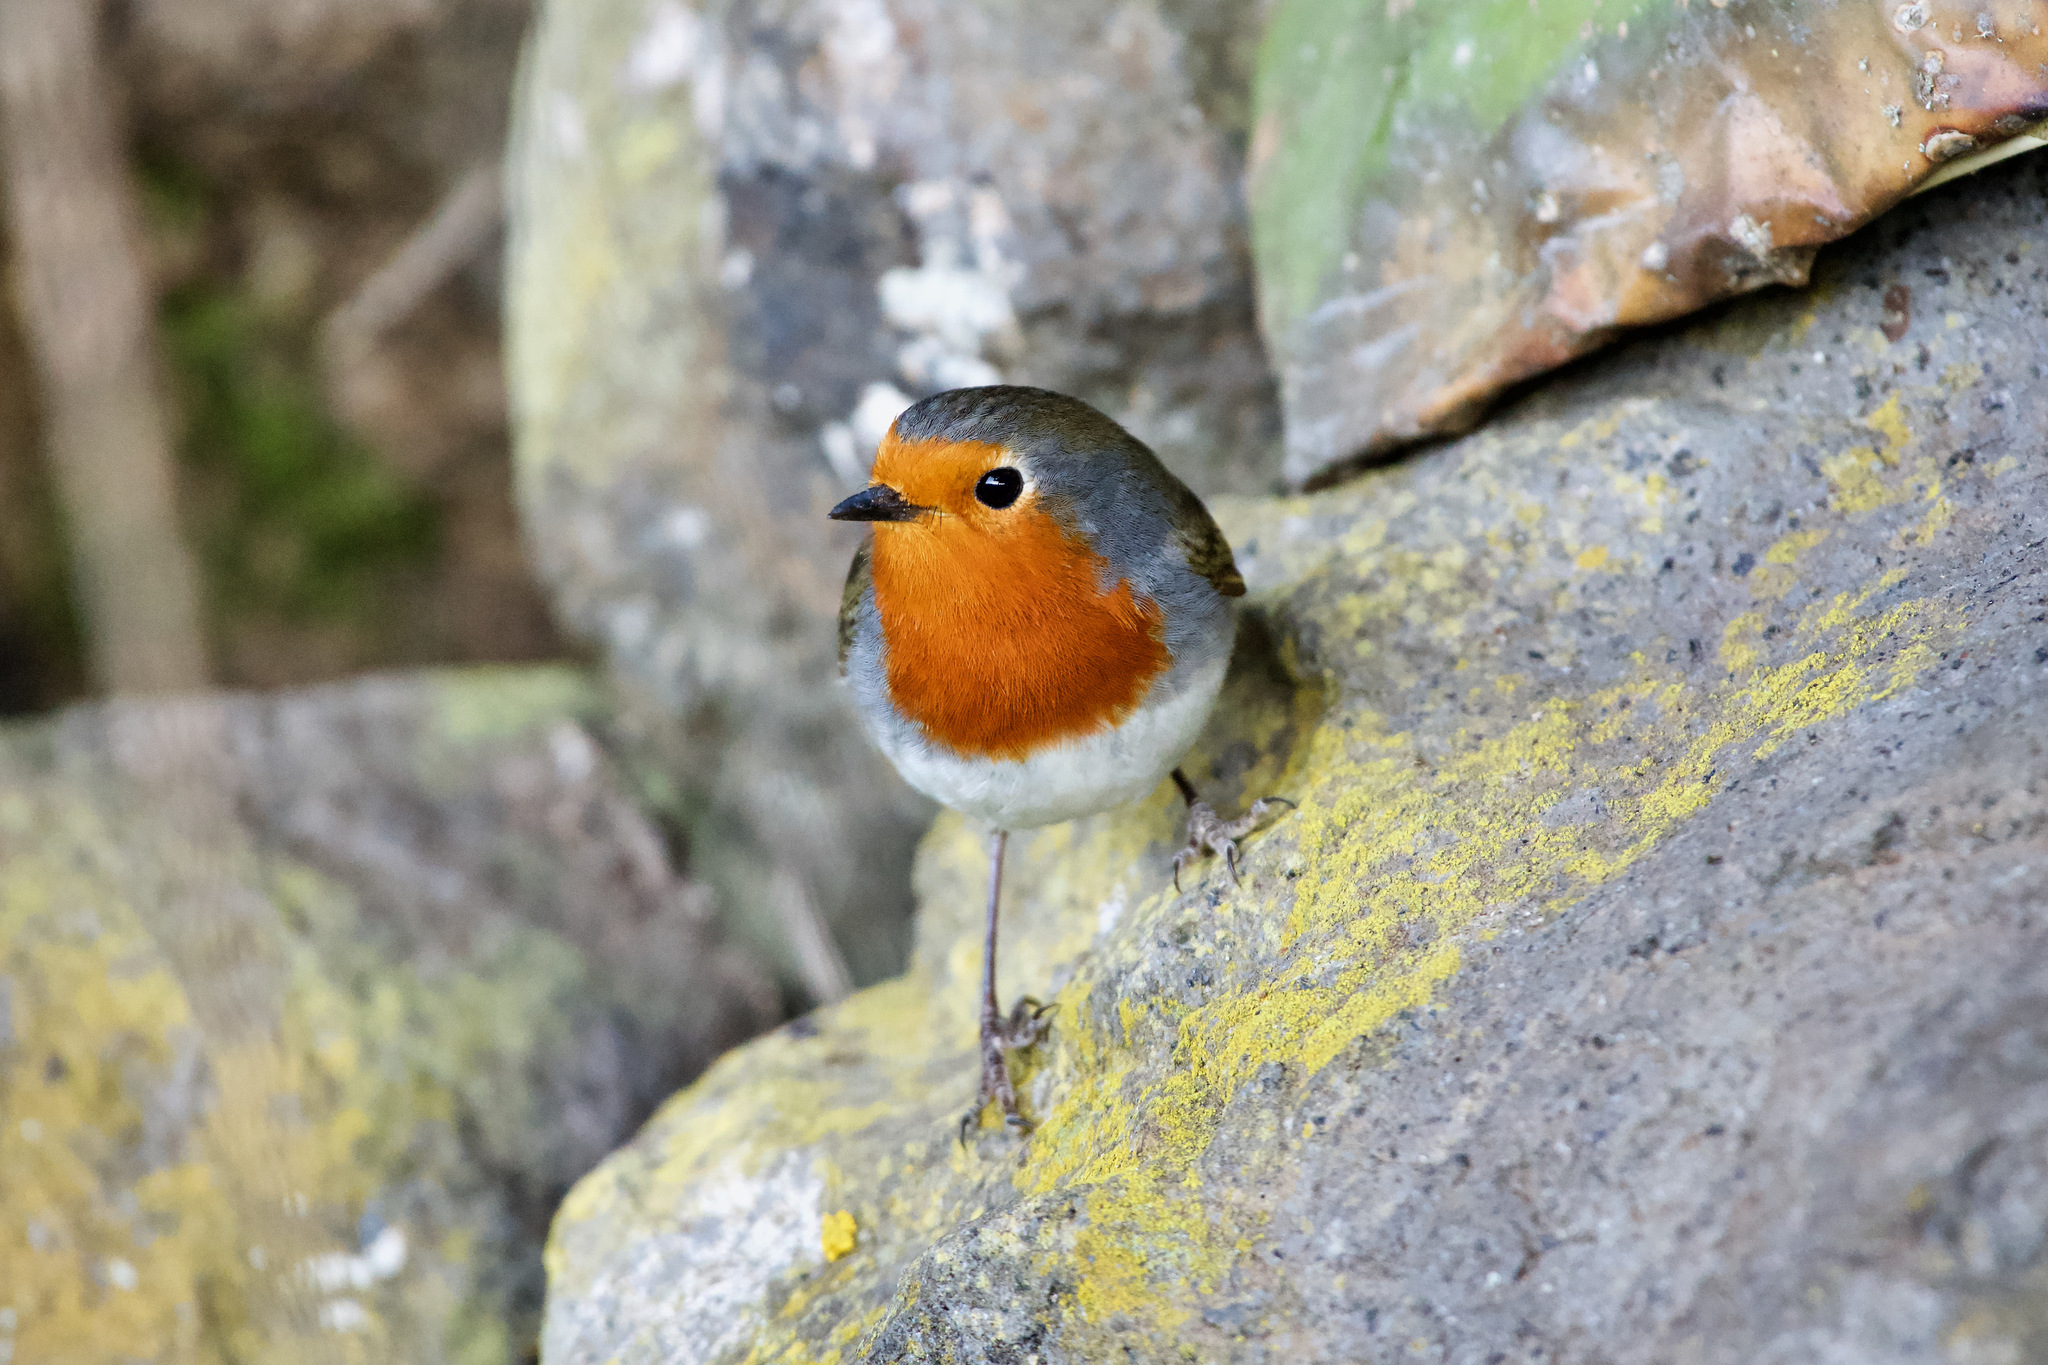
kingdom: Animalia
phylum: Chordata
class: Aves
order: Passeriformes
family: Muscicapidae
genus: Erithacus
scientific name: Erithacus rubecula
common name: European robin
